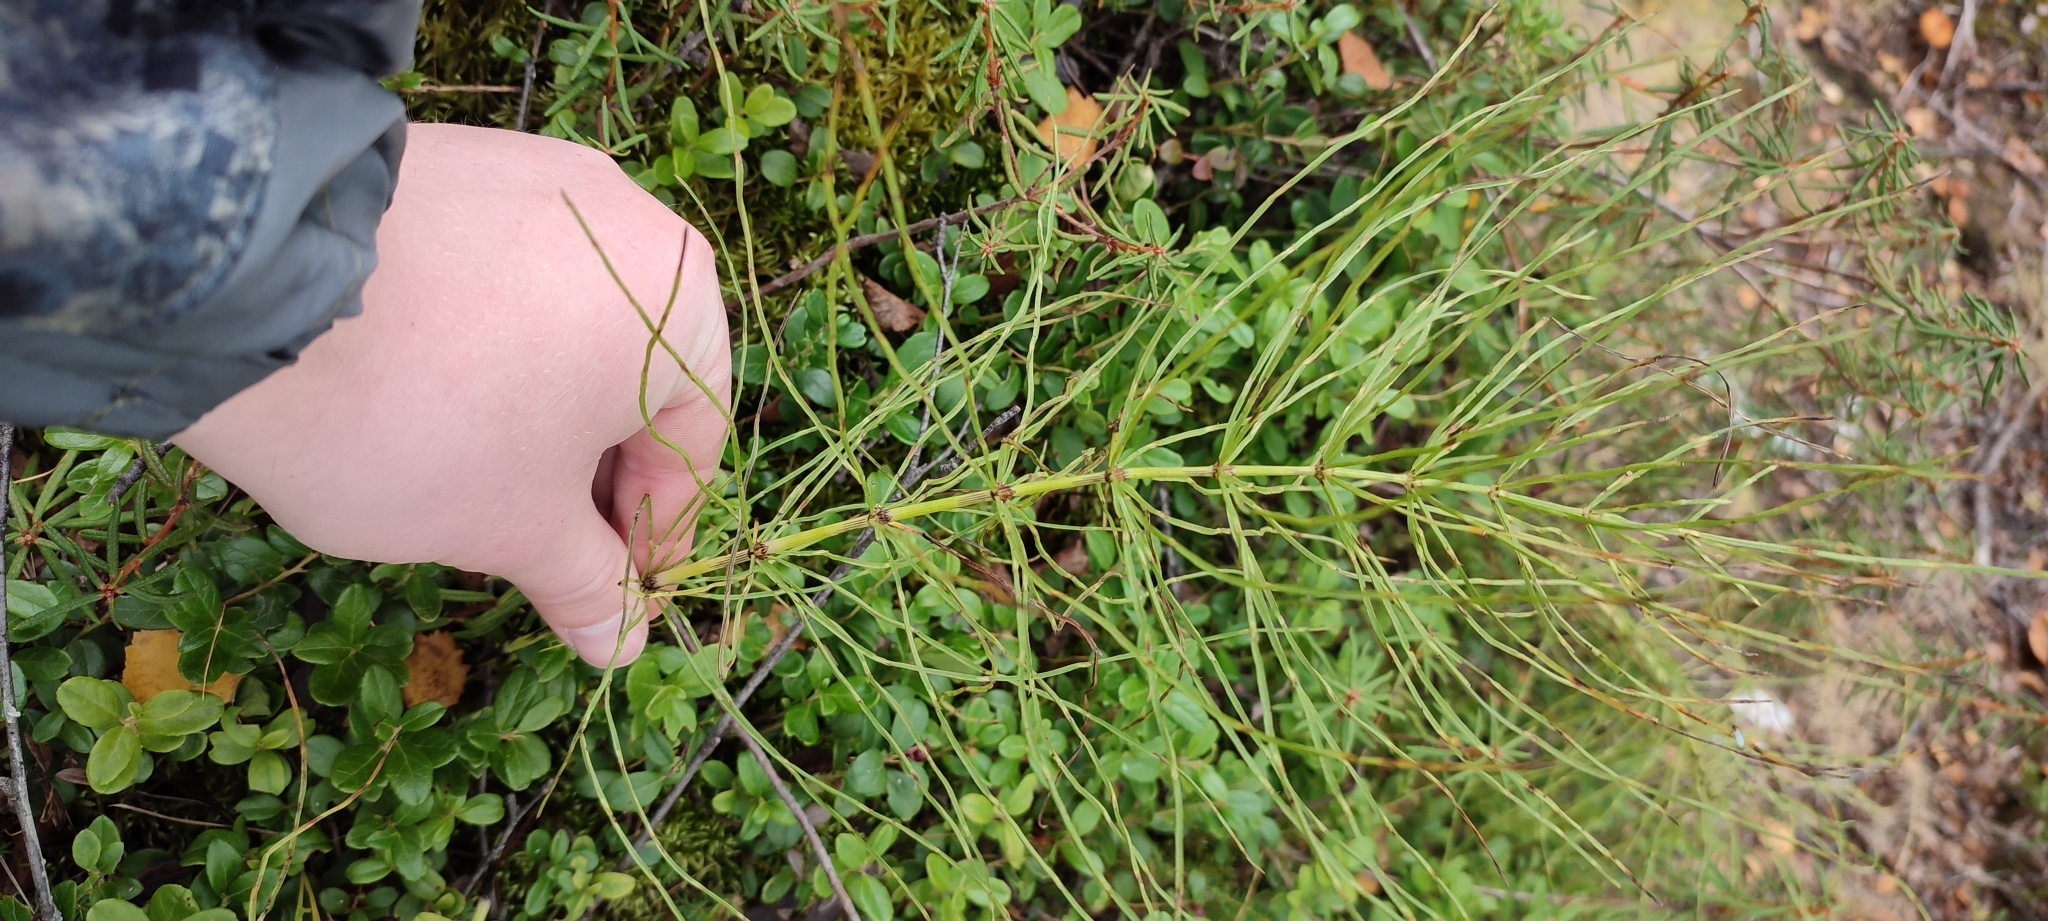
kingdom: Plantae
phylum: Tracheophyta
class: Polypodiopsida
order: Equisetales
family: Equisetaceae
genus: Equisetum
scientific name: Equisetum arvense
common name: Field horsetail
